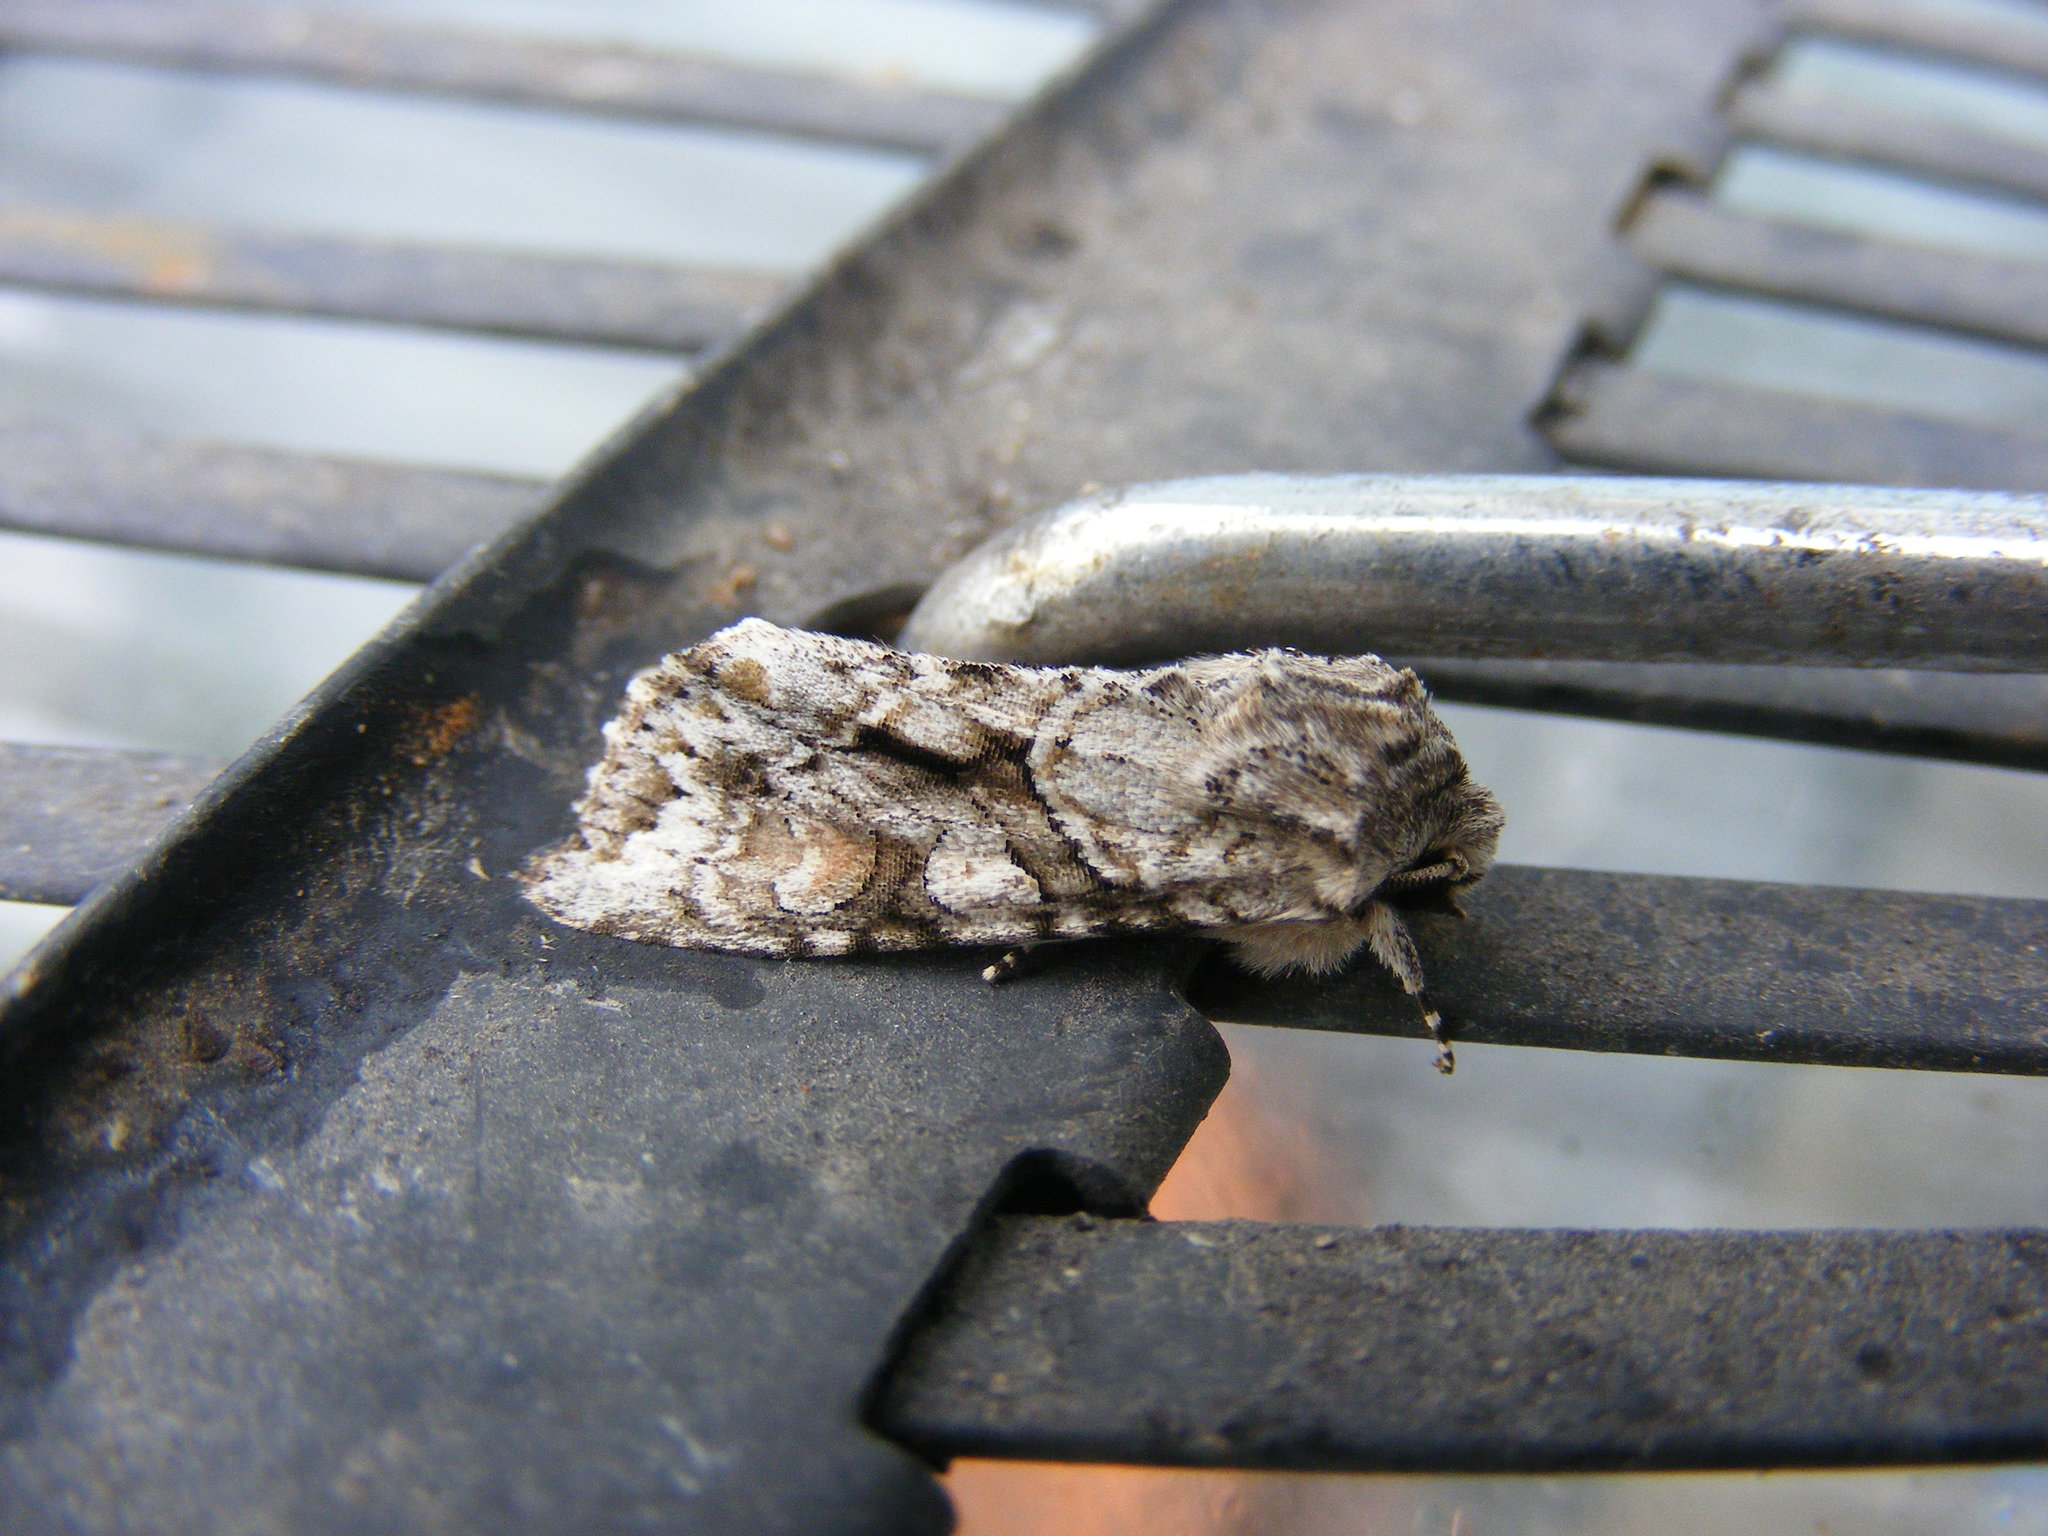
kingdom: Animalia
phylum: Arthropoda
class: Insecta
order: Lepidoptera
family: Noctuidae
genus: Achatia
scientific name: Achatia distincta
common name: Distinct quaker
